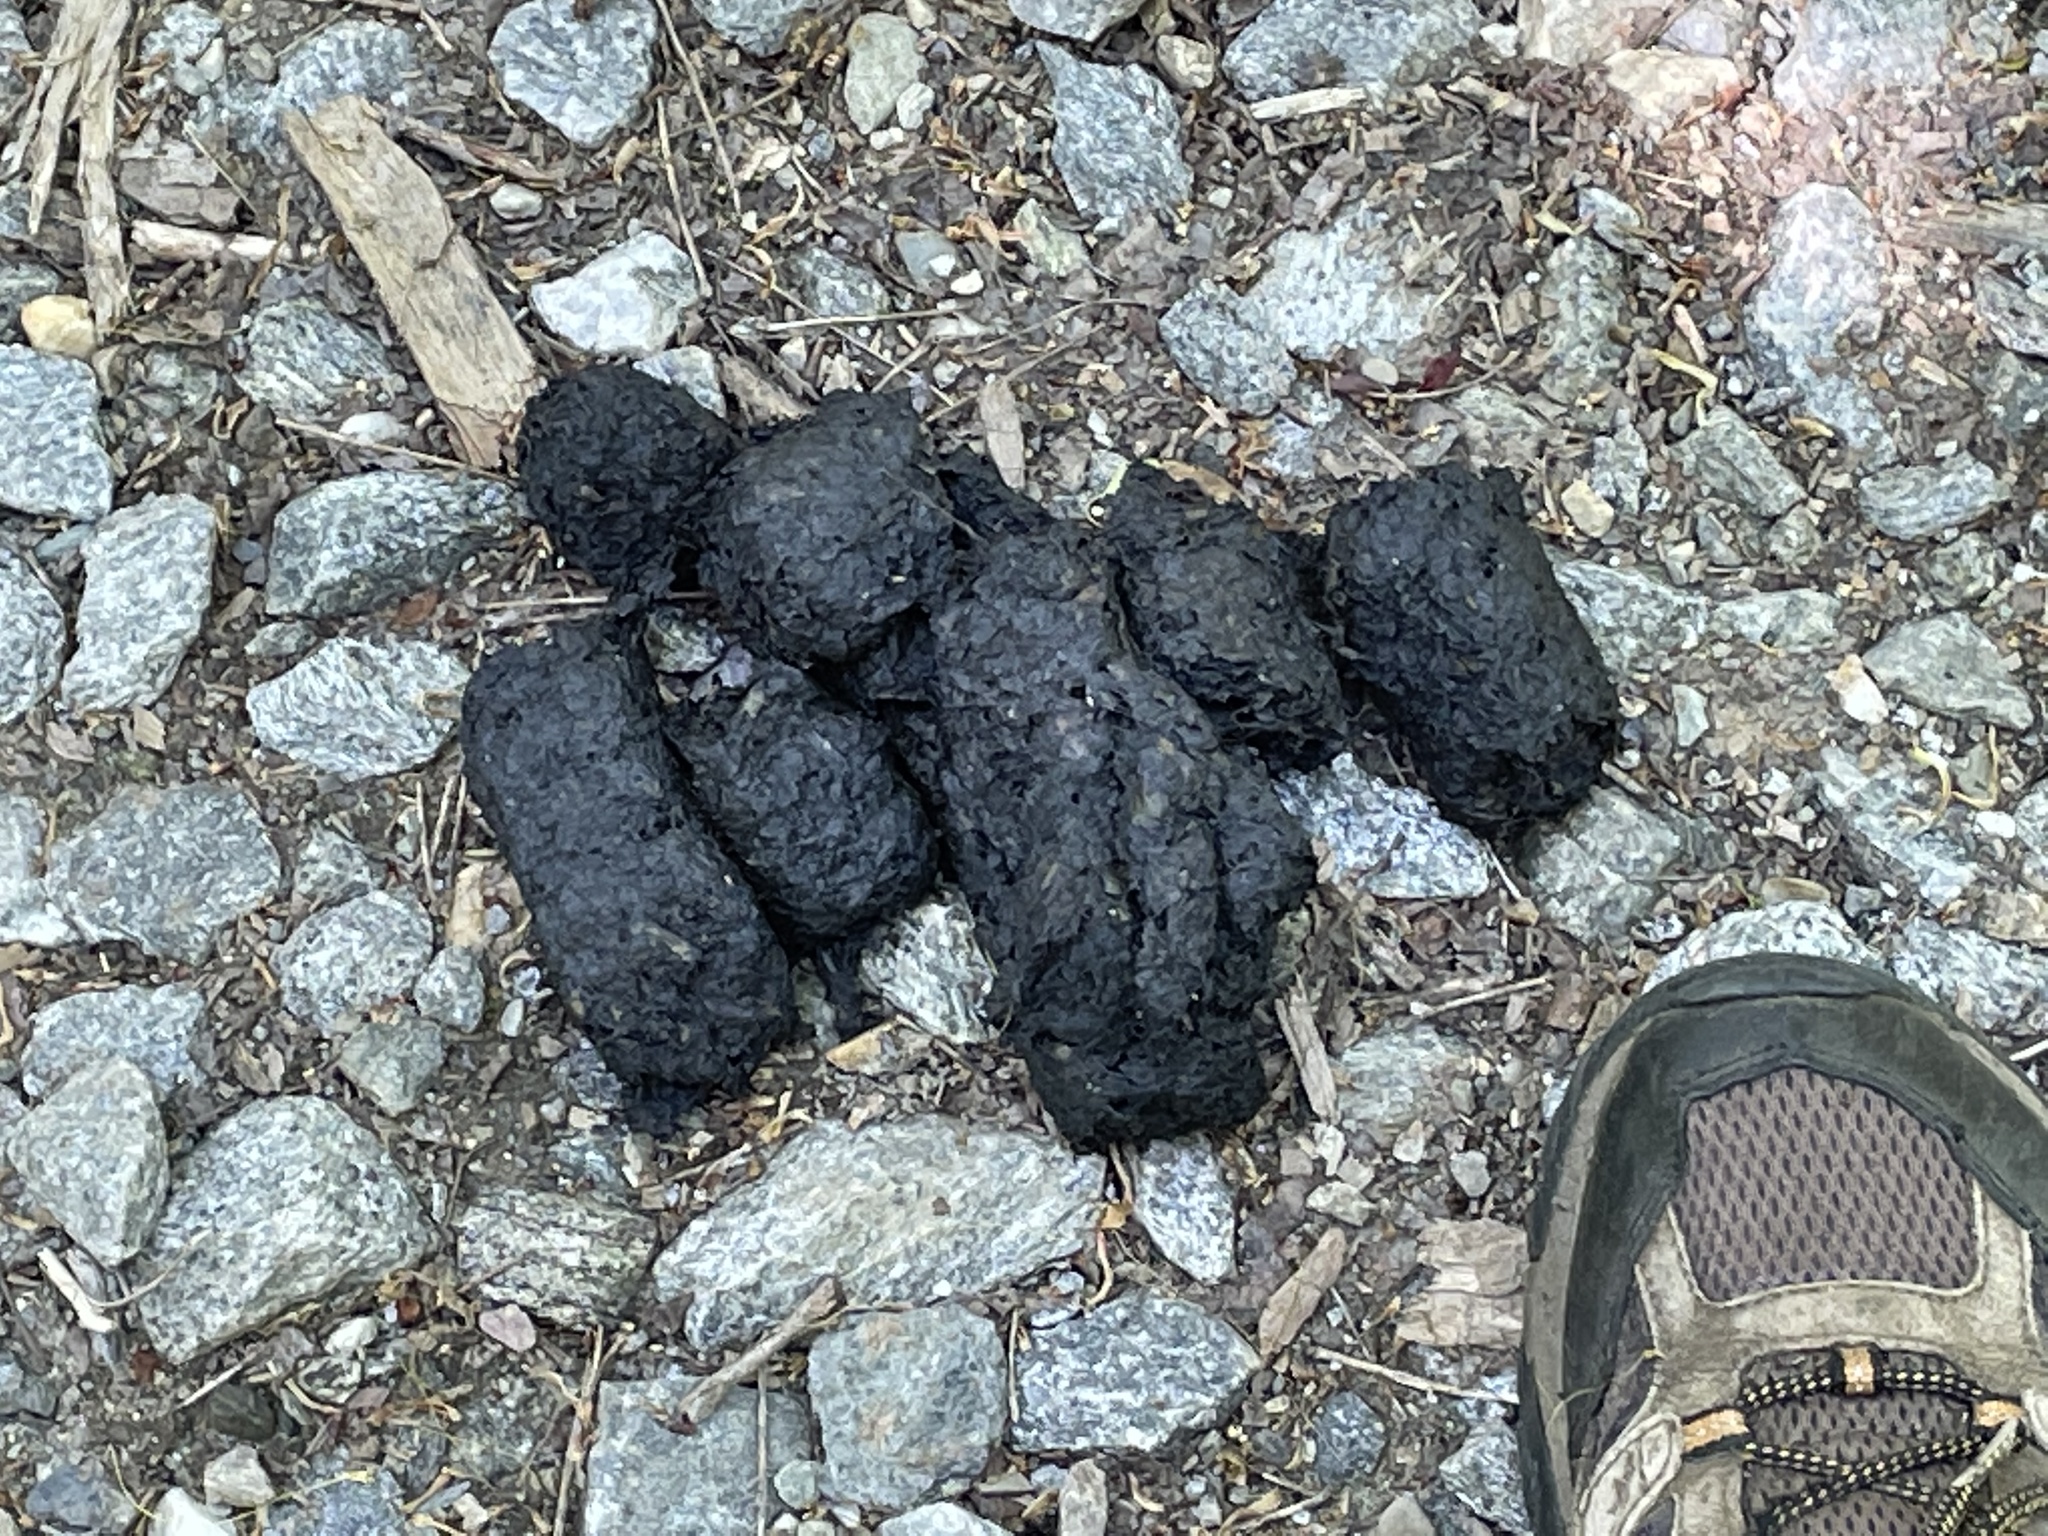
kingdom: Animalia
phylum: Chordata
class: Mammalia
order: Carnivora
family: Ursidae
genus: Ursus
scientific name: Ursus americanus
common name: American black bear
